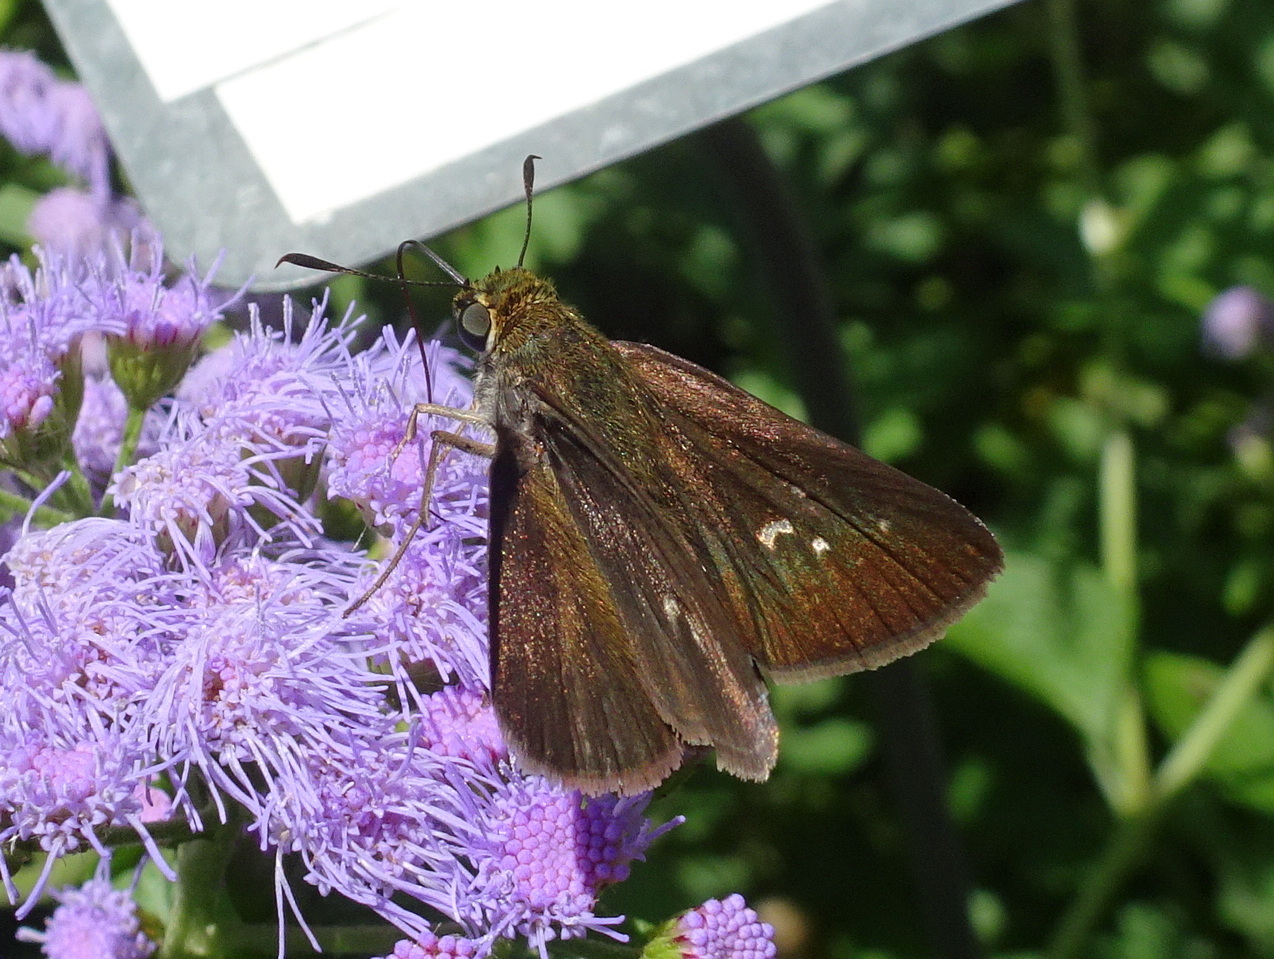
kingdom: Animalia
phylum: Arthropoda
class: Insecta
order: Lepidoptera
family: Hesperiidae
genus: Euphyes
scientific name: Euphyes vestris
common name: Dun skipper
